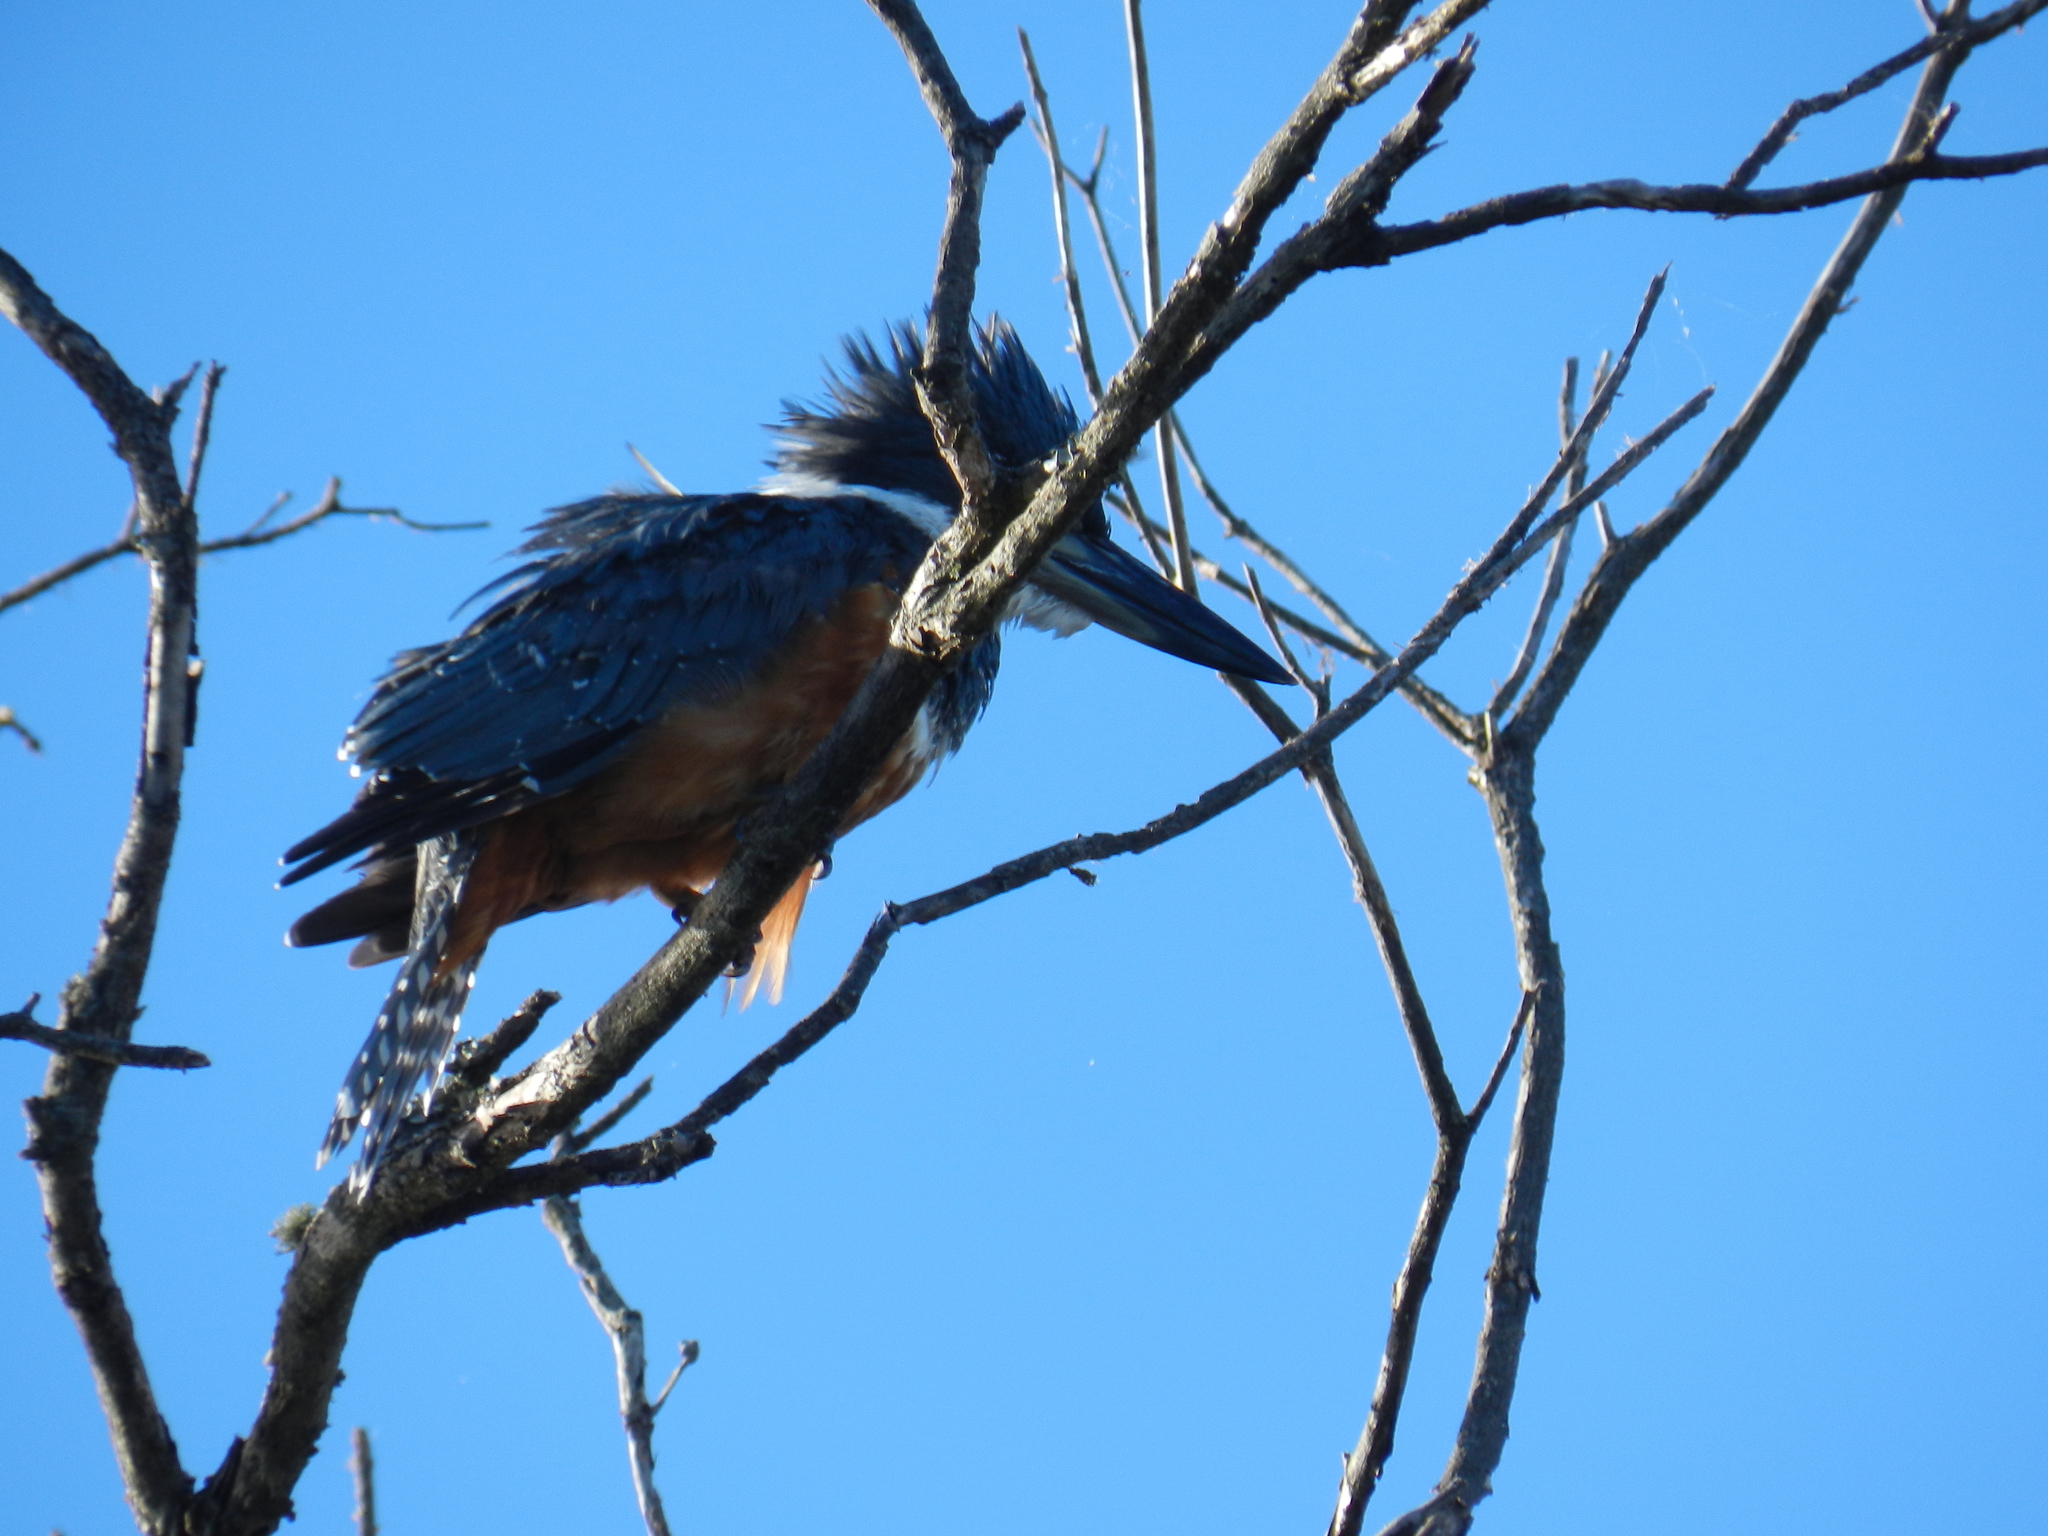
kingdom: Animalia
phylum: Chordata
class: Aves
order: Coraciiformes
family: Alcedinidae
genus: Megaceryle
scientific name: Megaceryle torquata
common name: Ringed kingfisher
